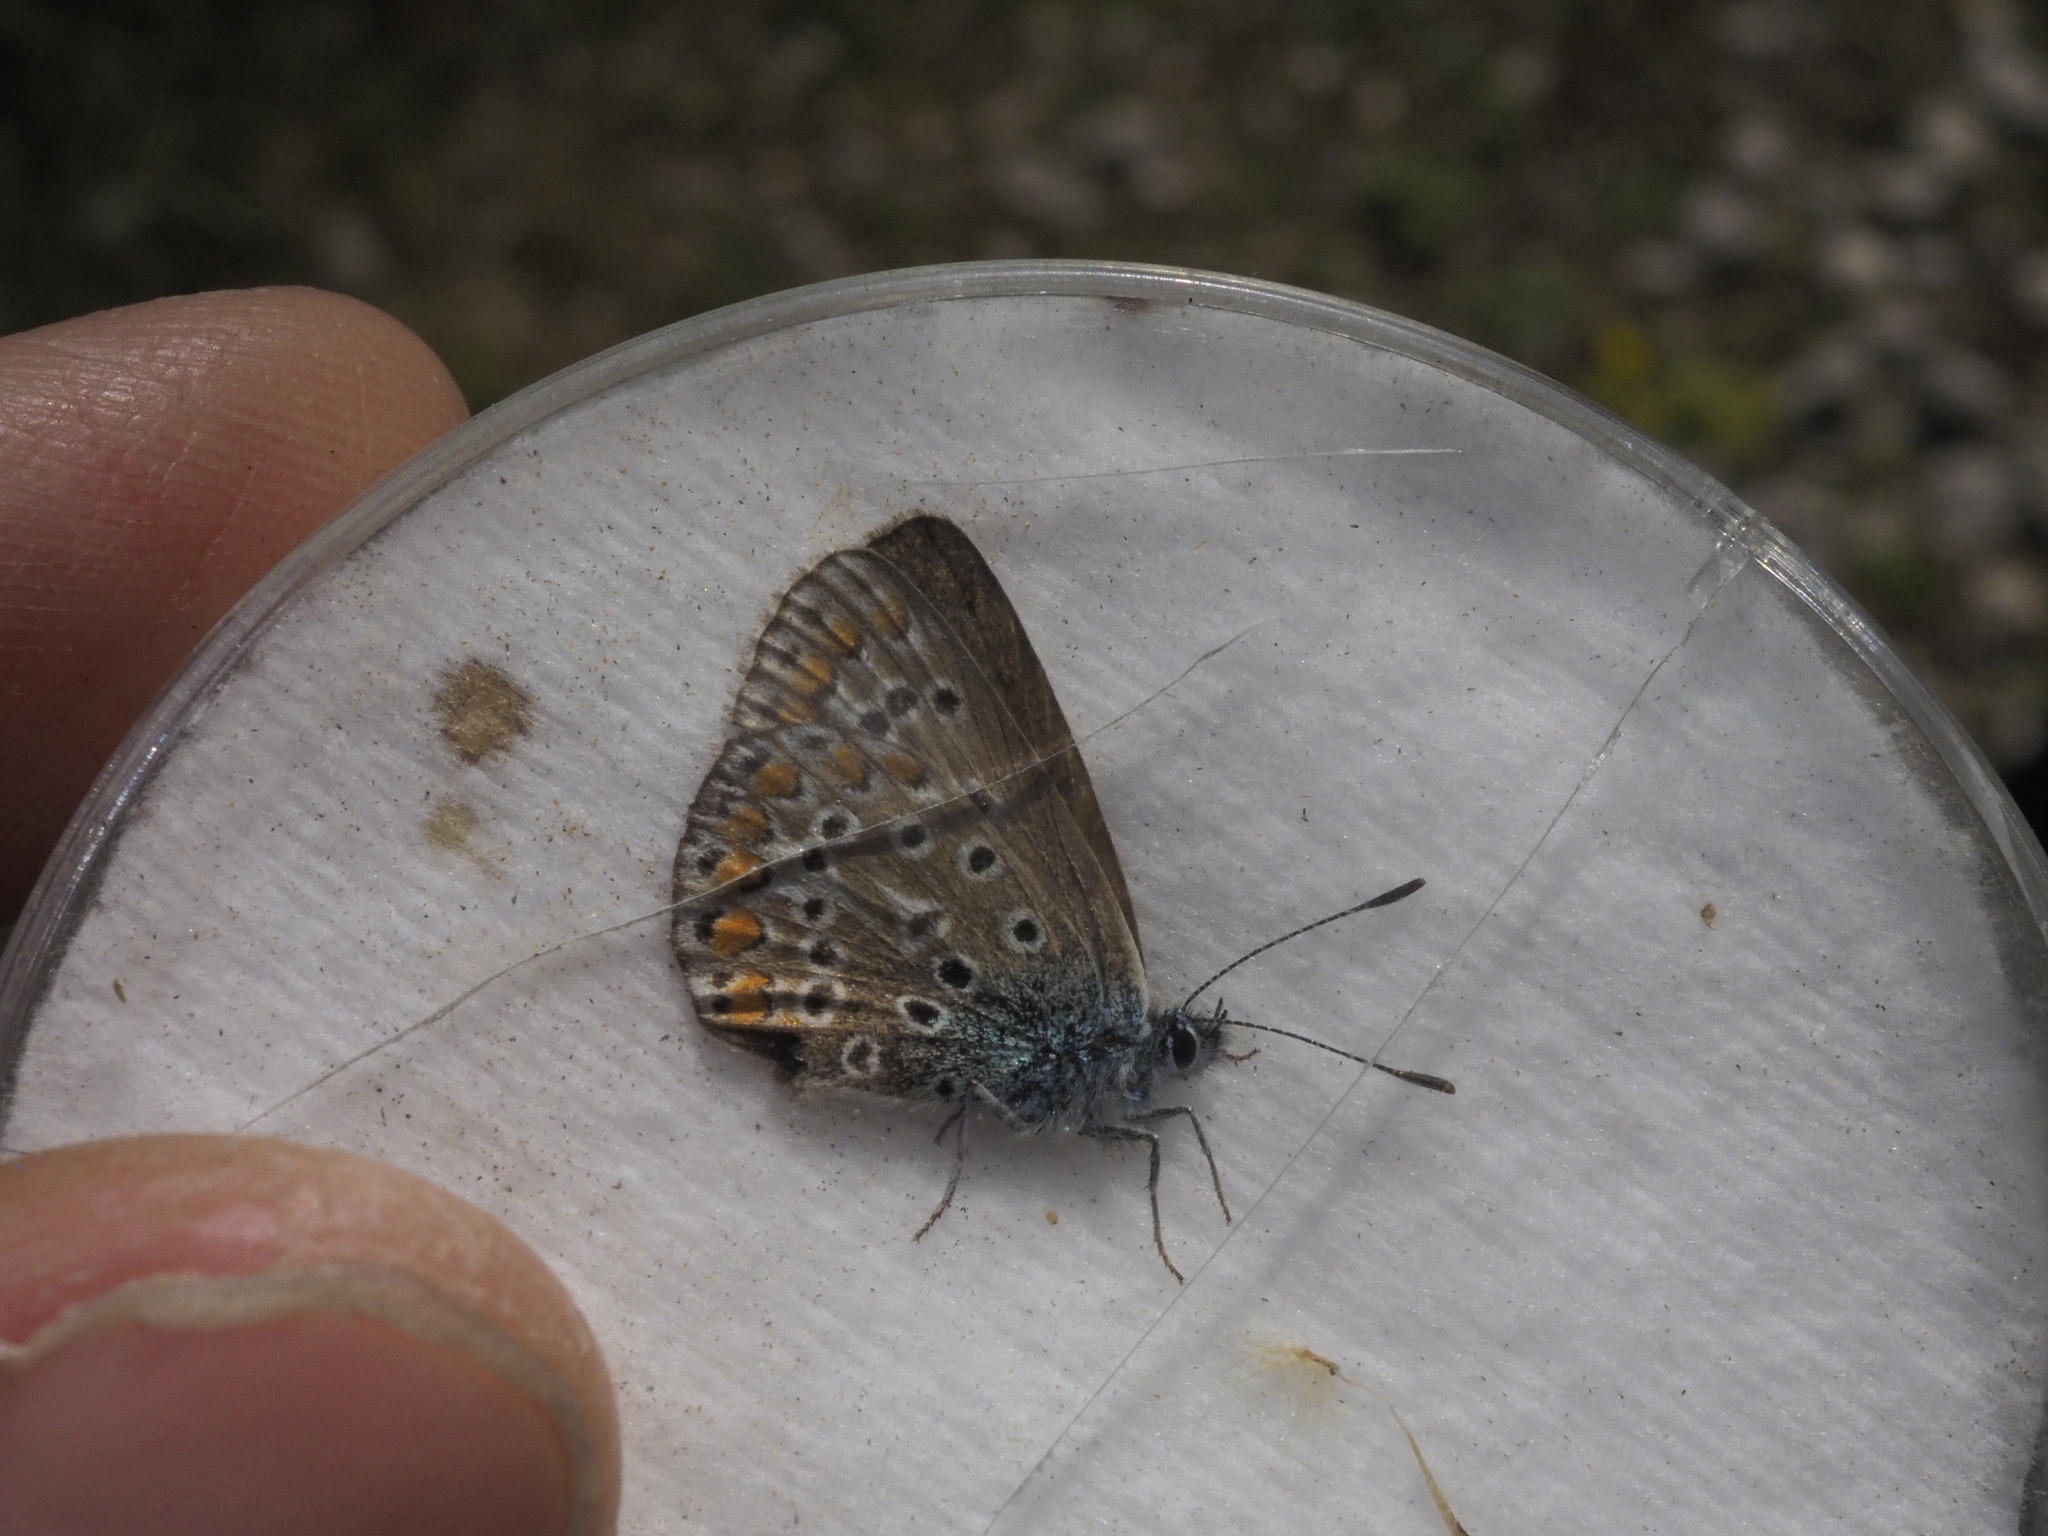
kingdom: Animalia
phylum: Arthropoda
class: Insecta
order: Lepidoptera
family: Lycaenidae
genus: Polyommatus
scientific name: Polyommatus icarus
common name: Common blue
